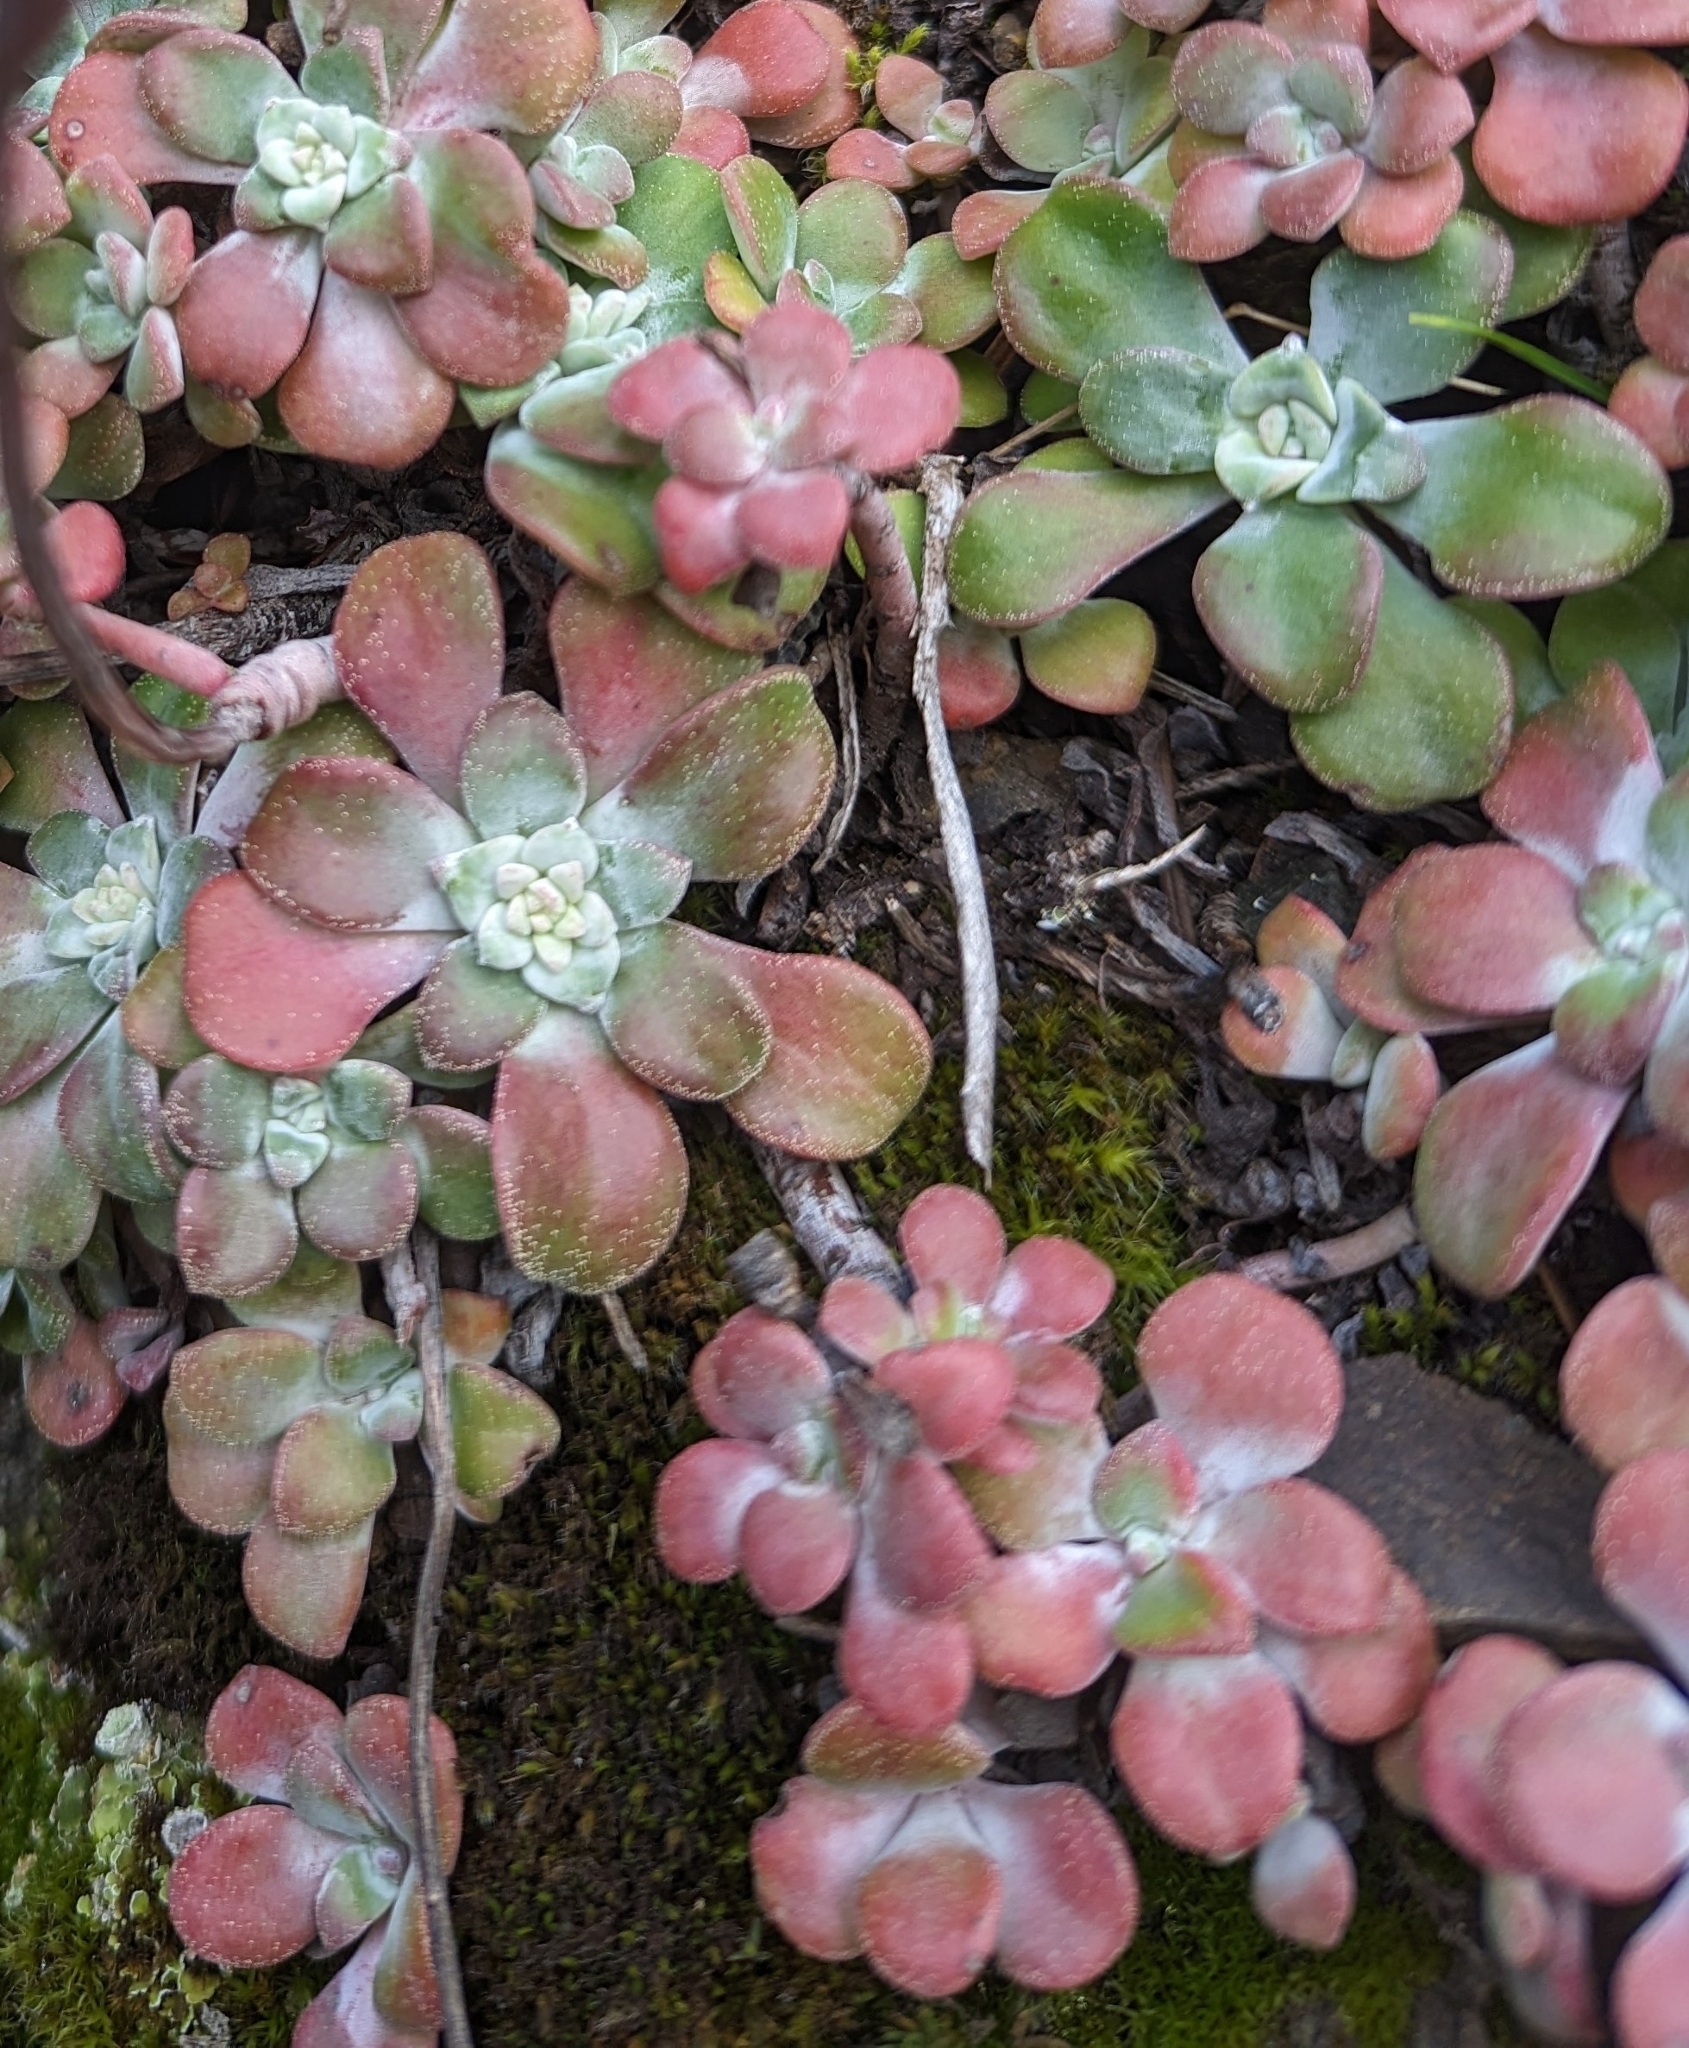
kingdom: Plantae
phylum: Tracheophyta
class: Magnoliopsida
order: Saxifragales
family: Crassulaceae
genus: Sedum
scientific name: Sedum spathulifolium
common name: Colorado stonecrop
